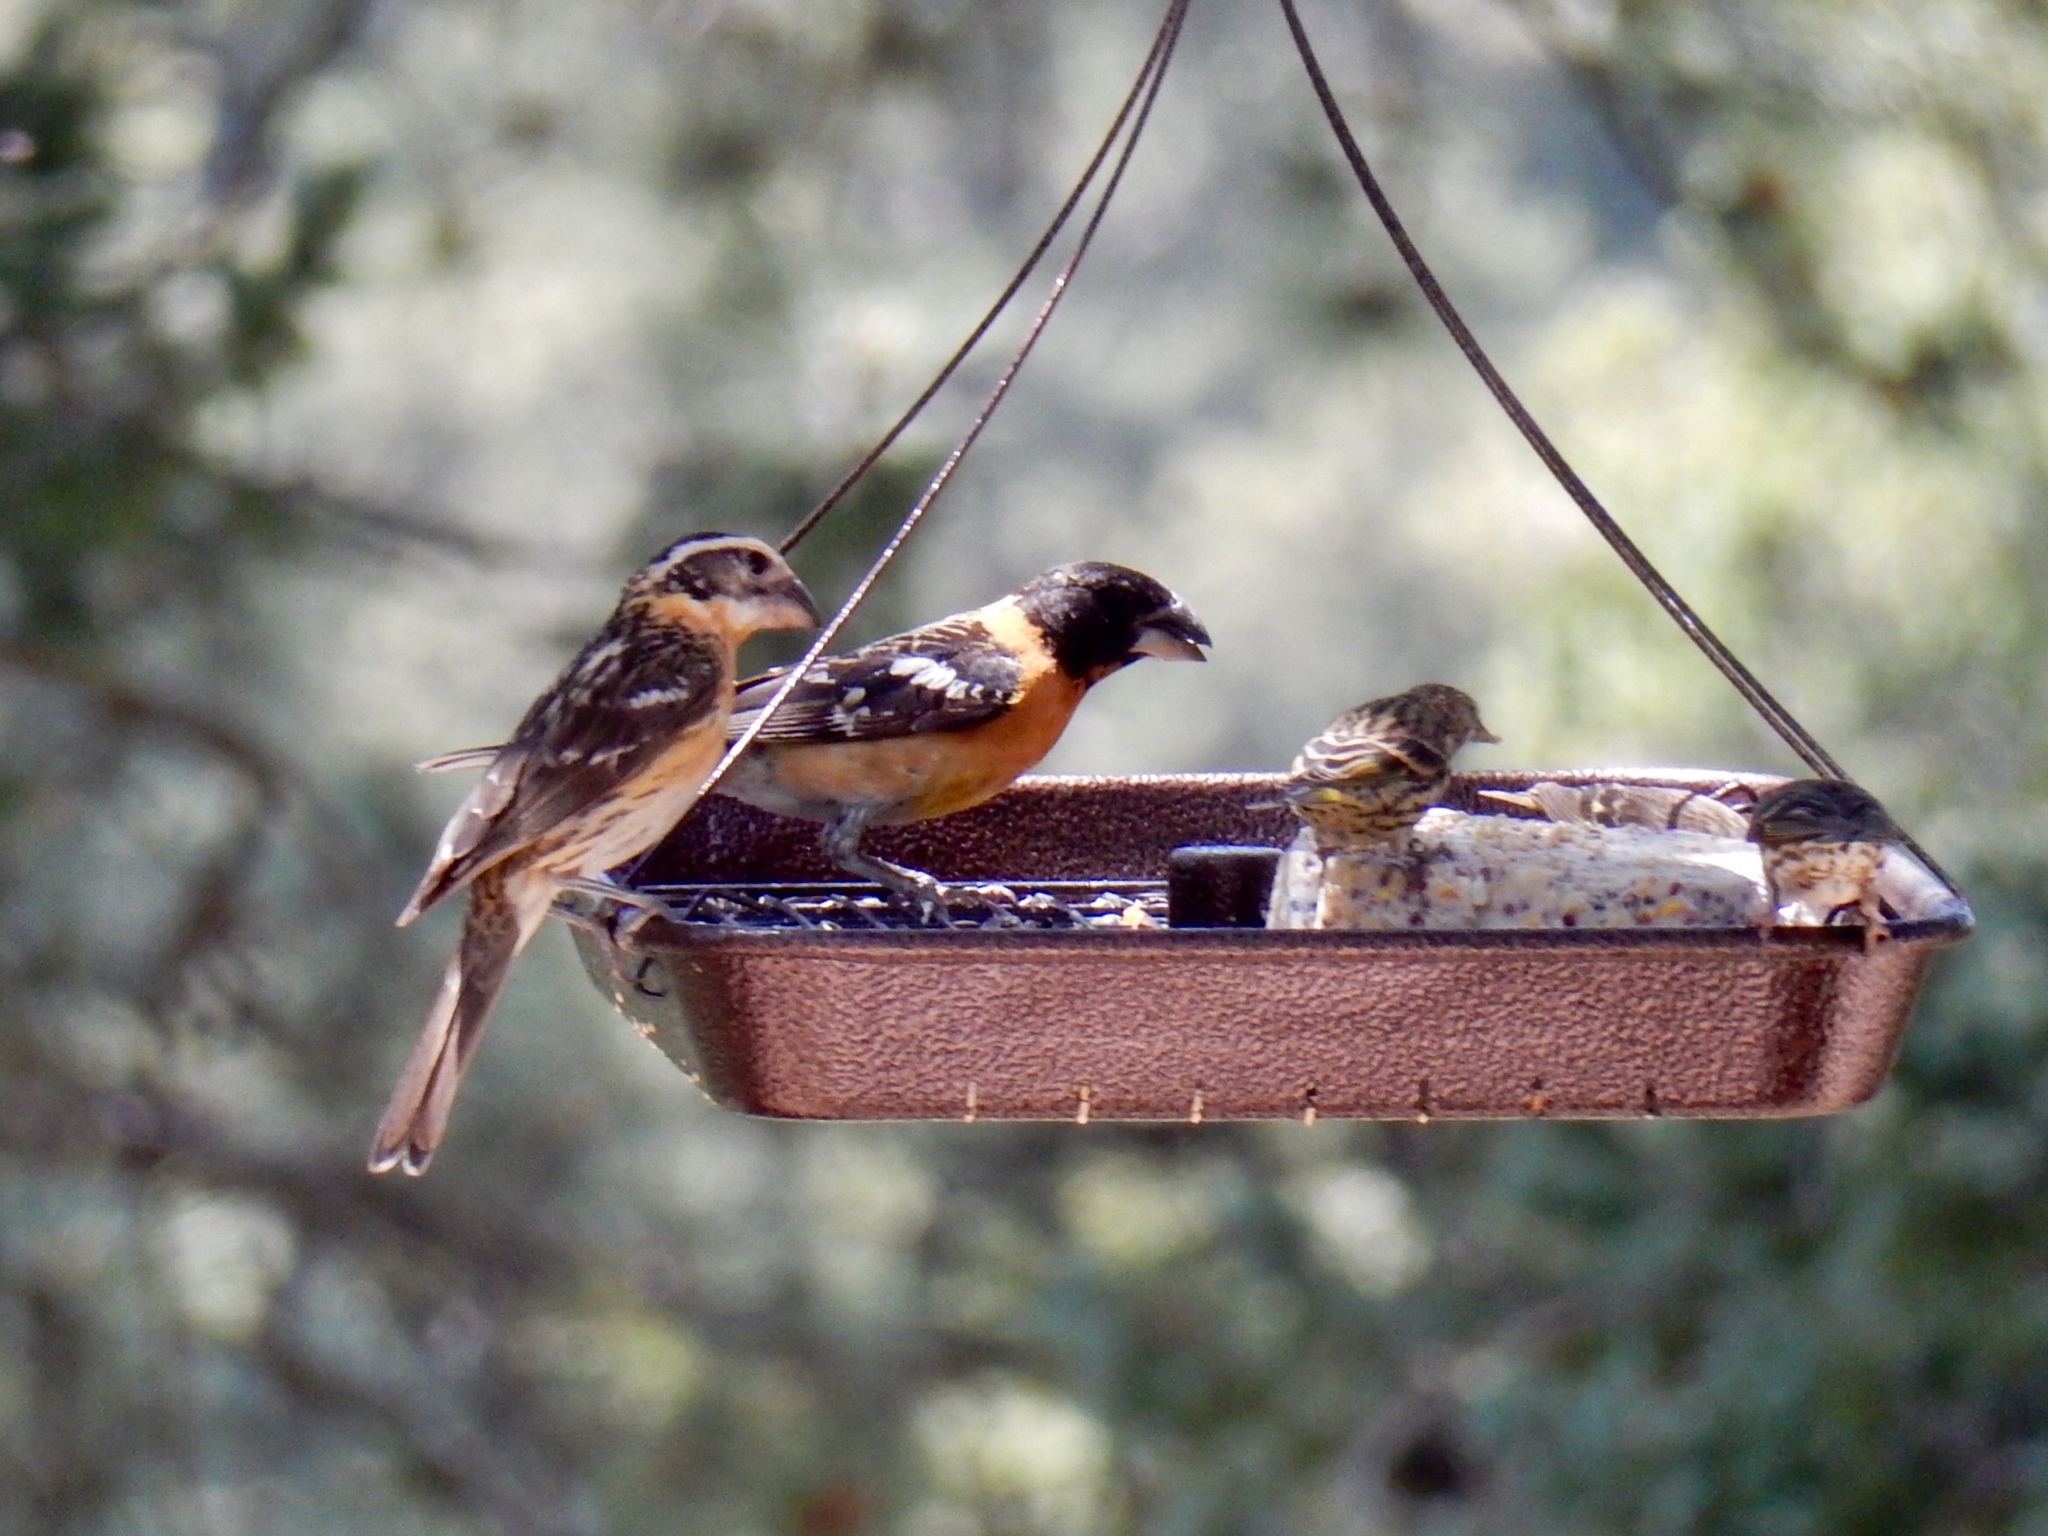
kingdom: Animalia
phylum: Chordata
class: Aves
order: Passeriformes
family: Cardinalidae
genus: Pheucticus
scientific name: Pheucticus melanocephalus
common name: Black-headed grosbeak
